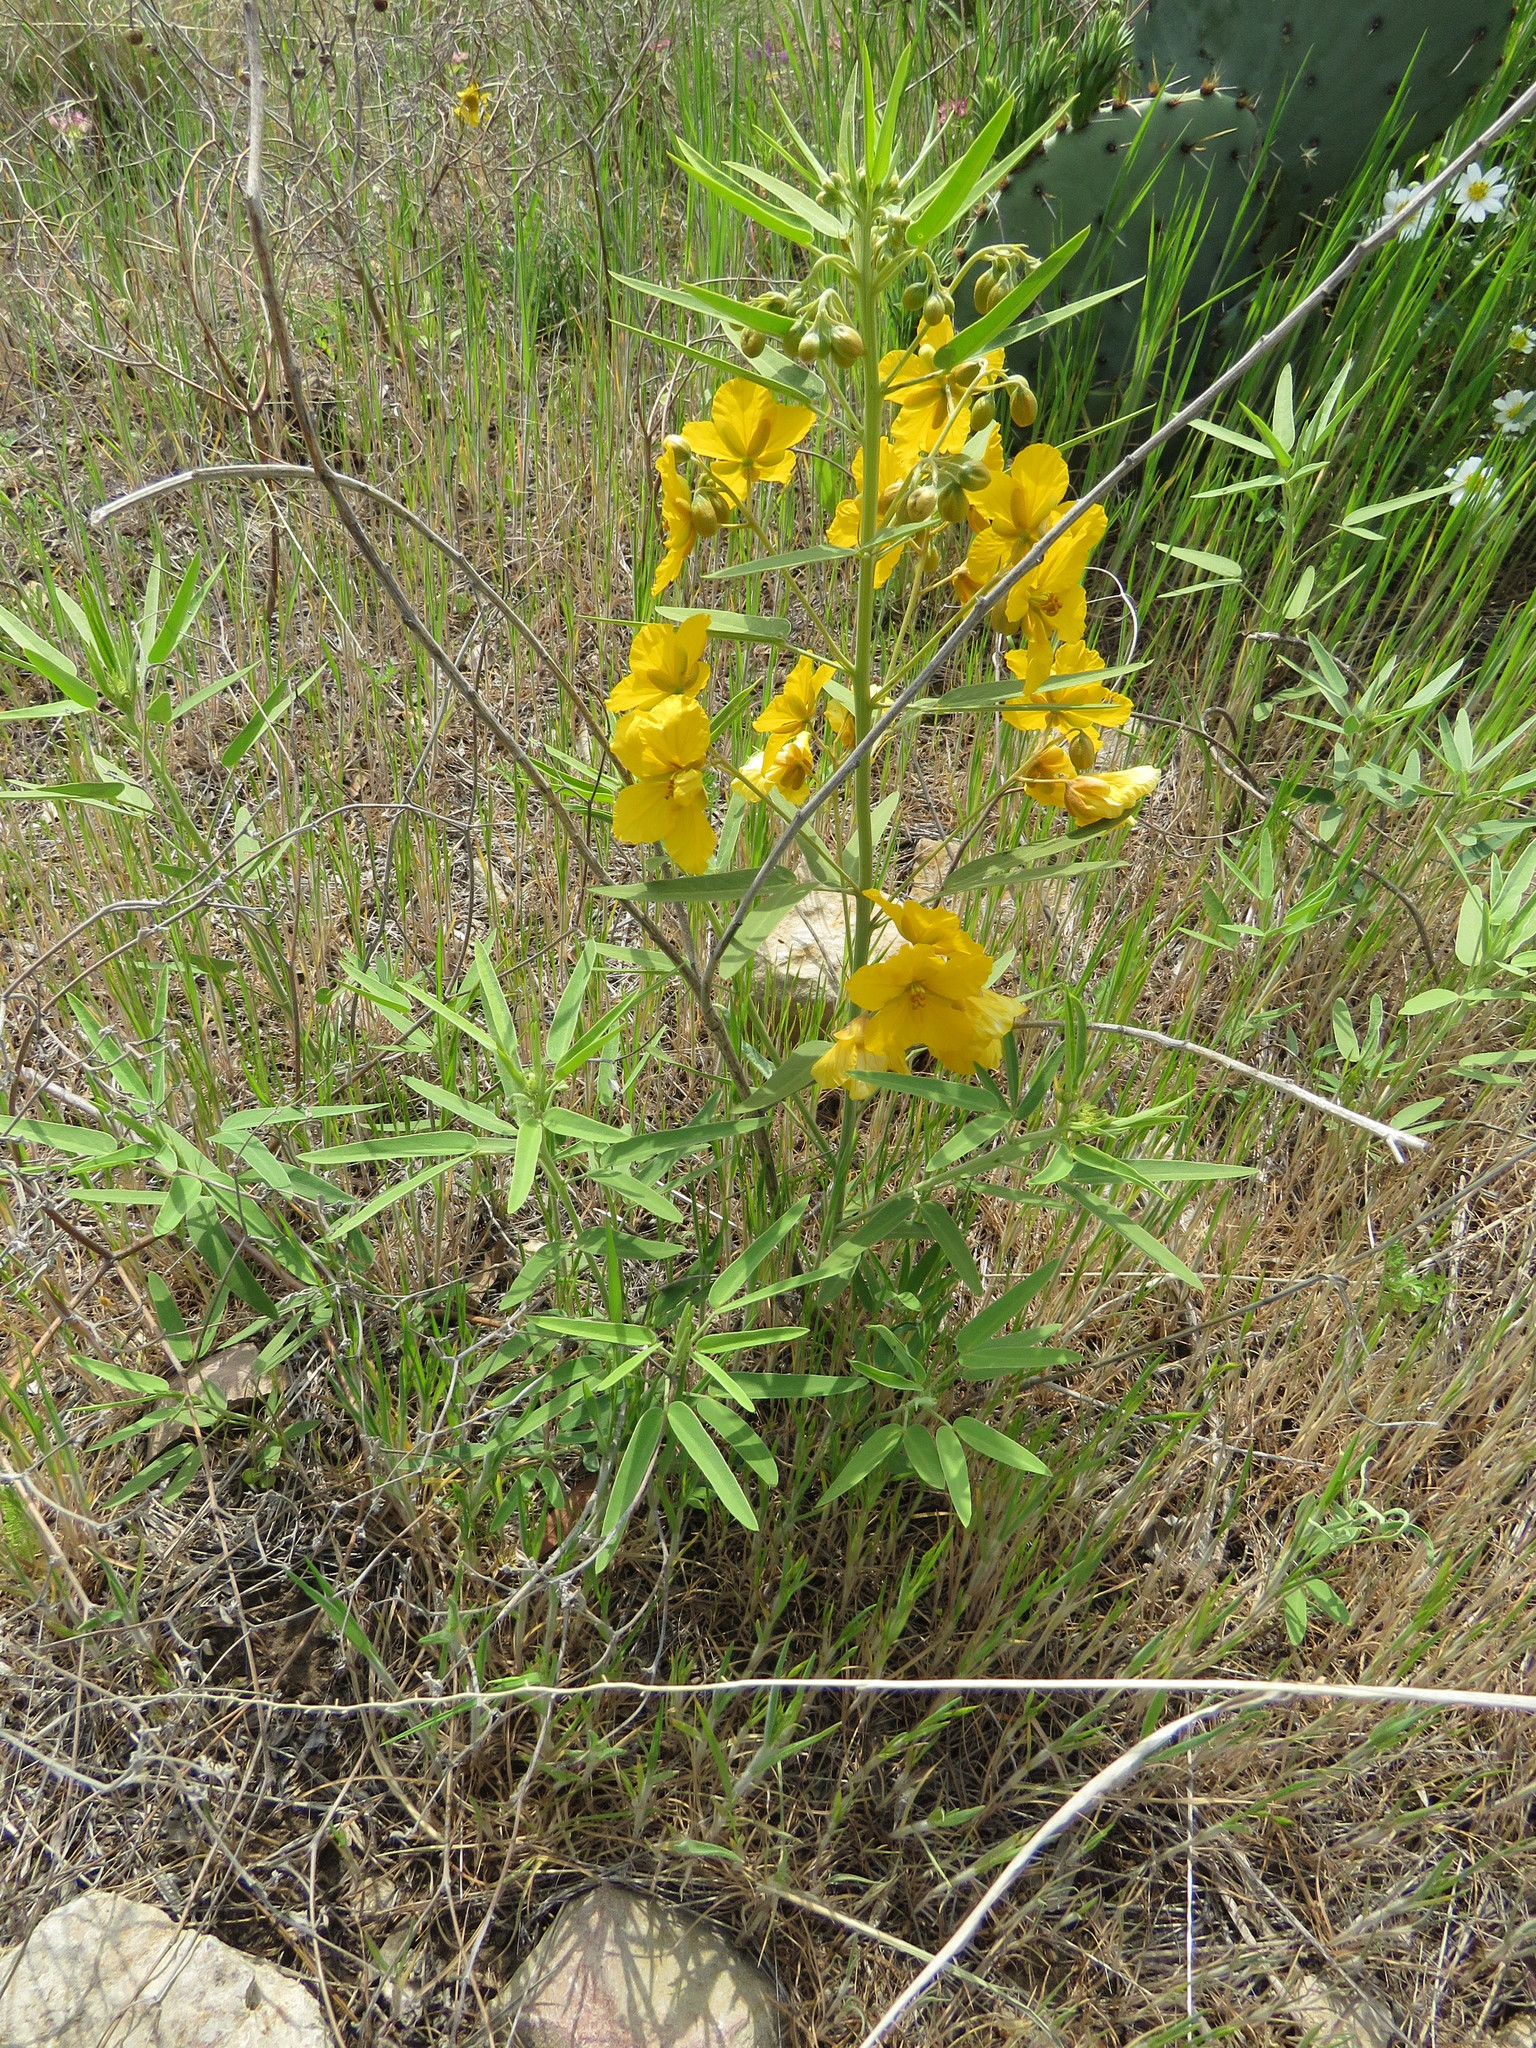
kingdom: Plantae
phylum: Tracheophyta
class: Magnoliopsida
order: Fabales
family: Fabaceae
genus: Senna
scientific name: Senna roemeriana
